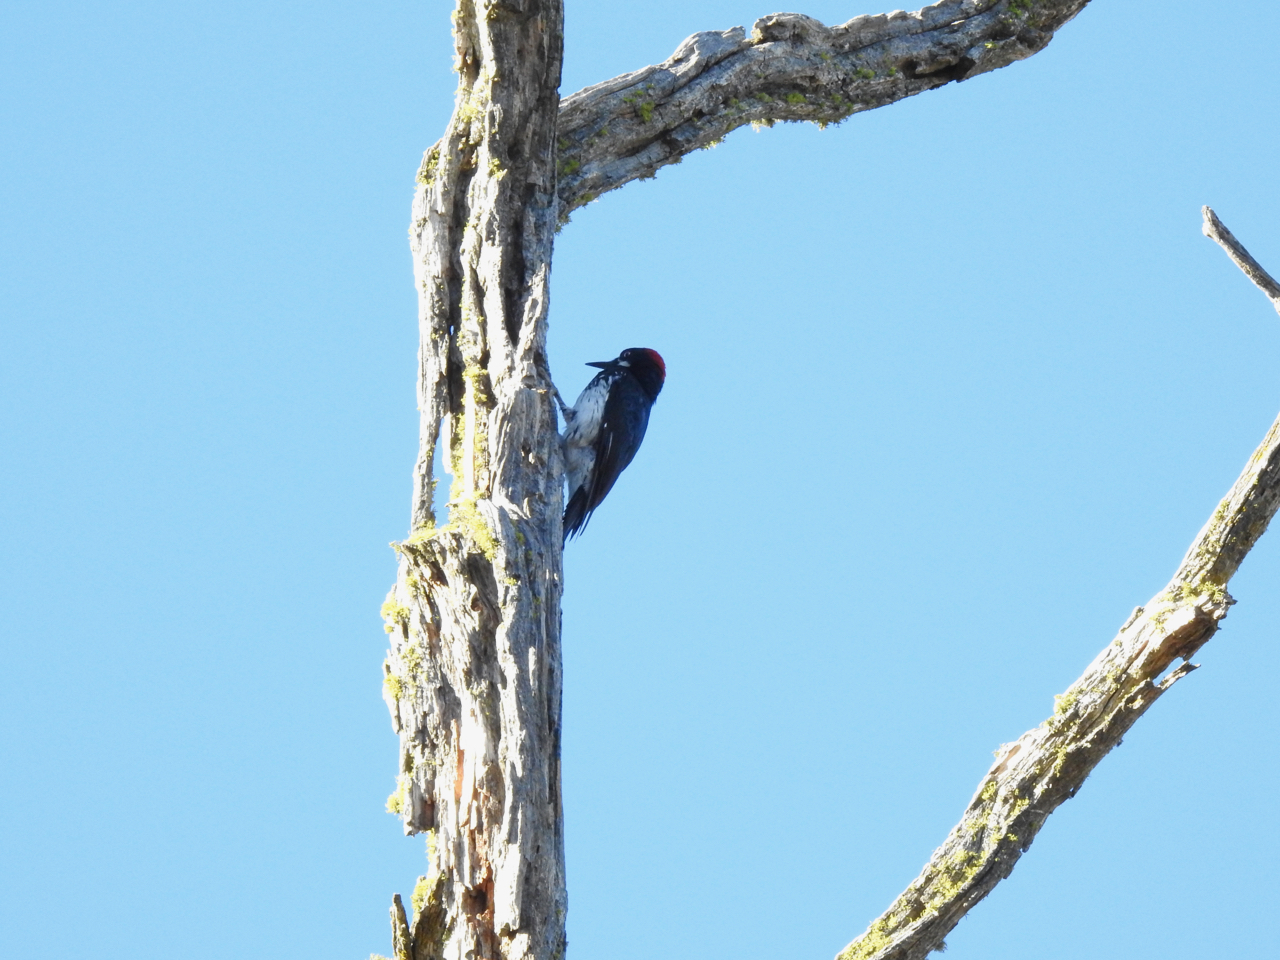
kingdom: Animalia
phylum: Chordata
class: Aves
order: Piciformes
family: Picidae
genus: Melanerpes
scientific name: Melanerpes formicivorus
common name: Acorn woodpecker
